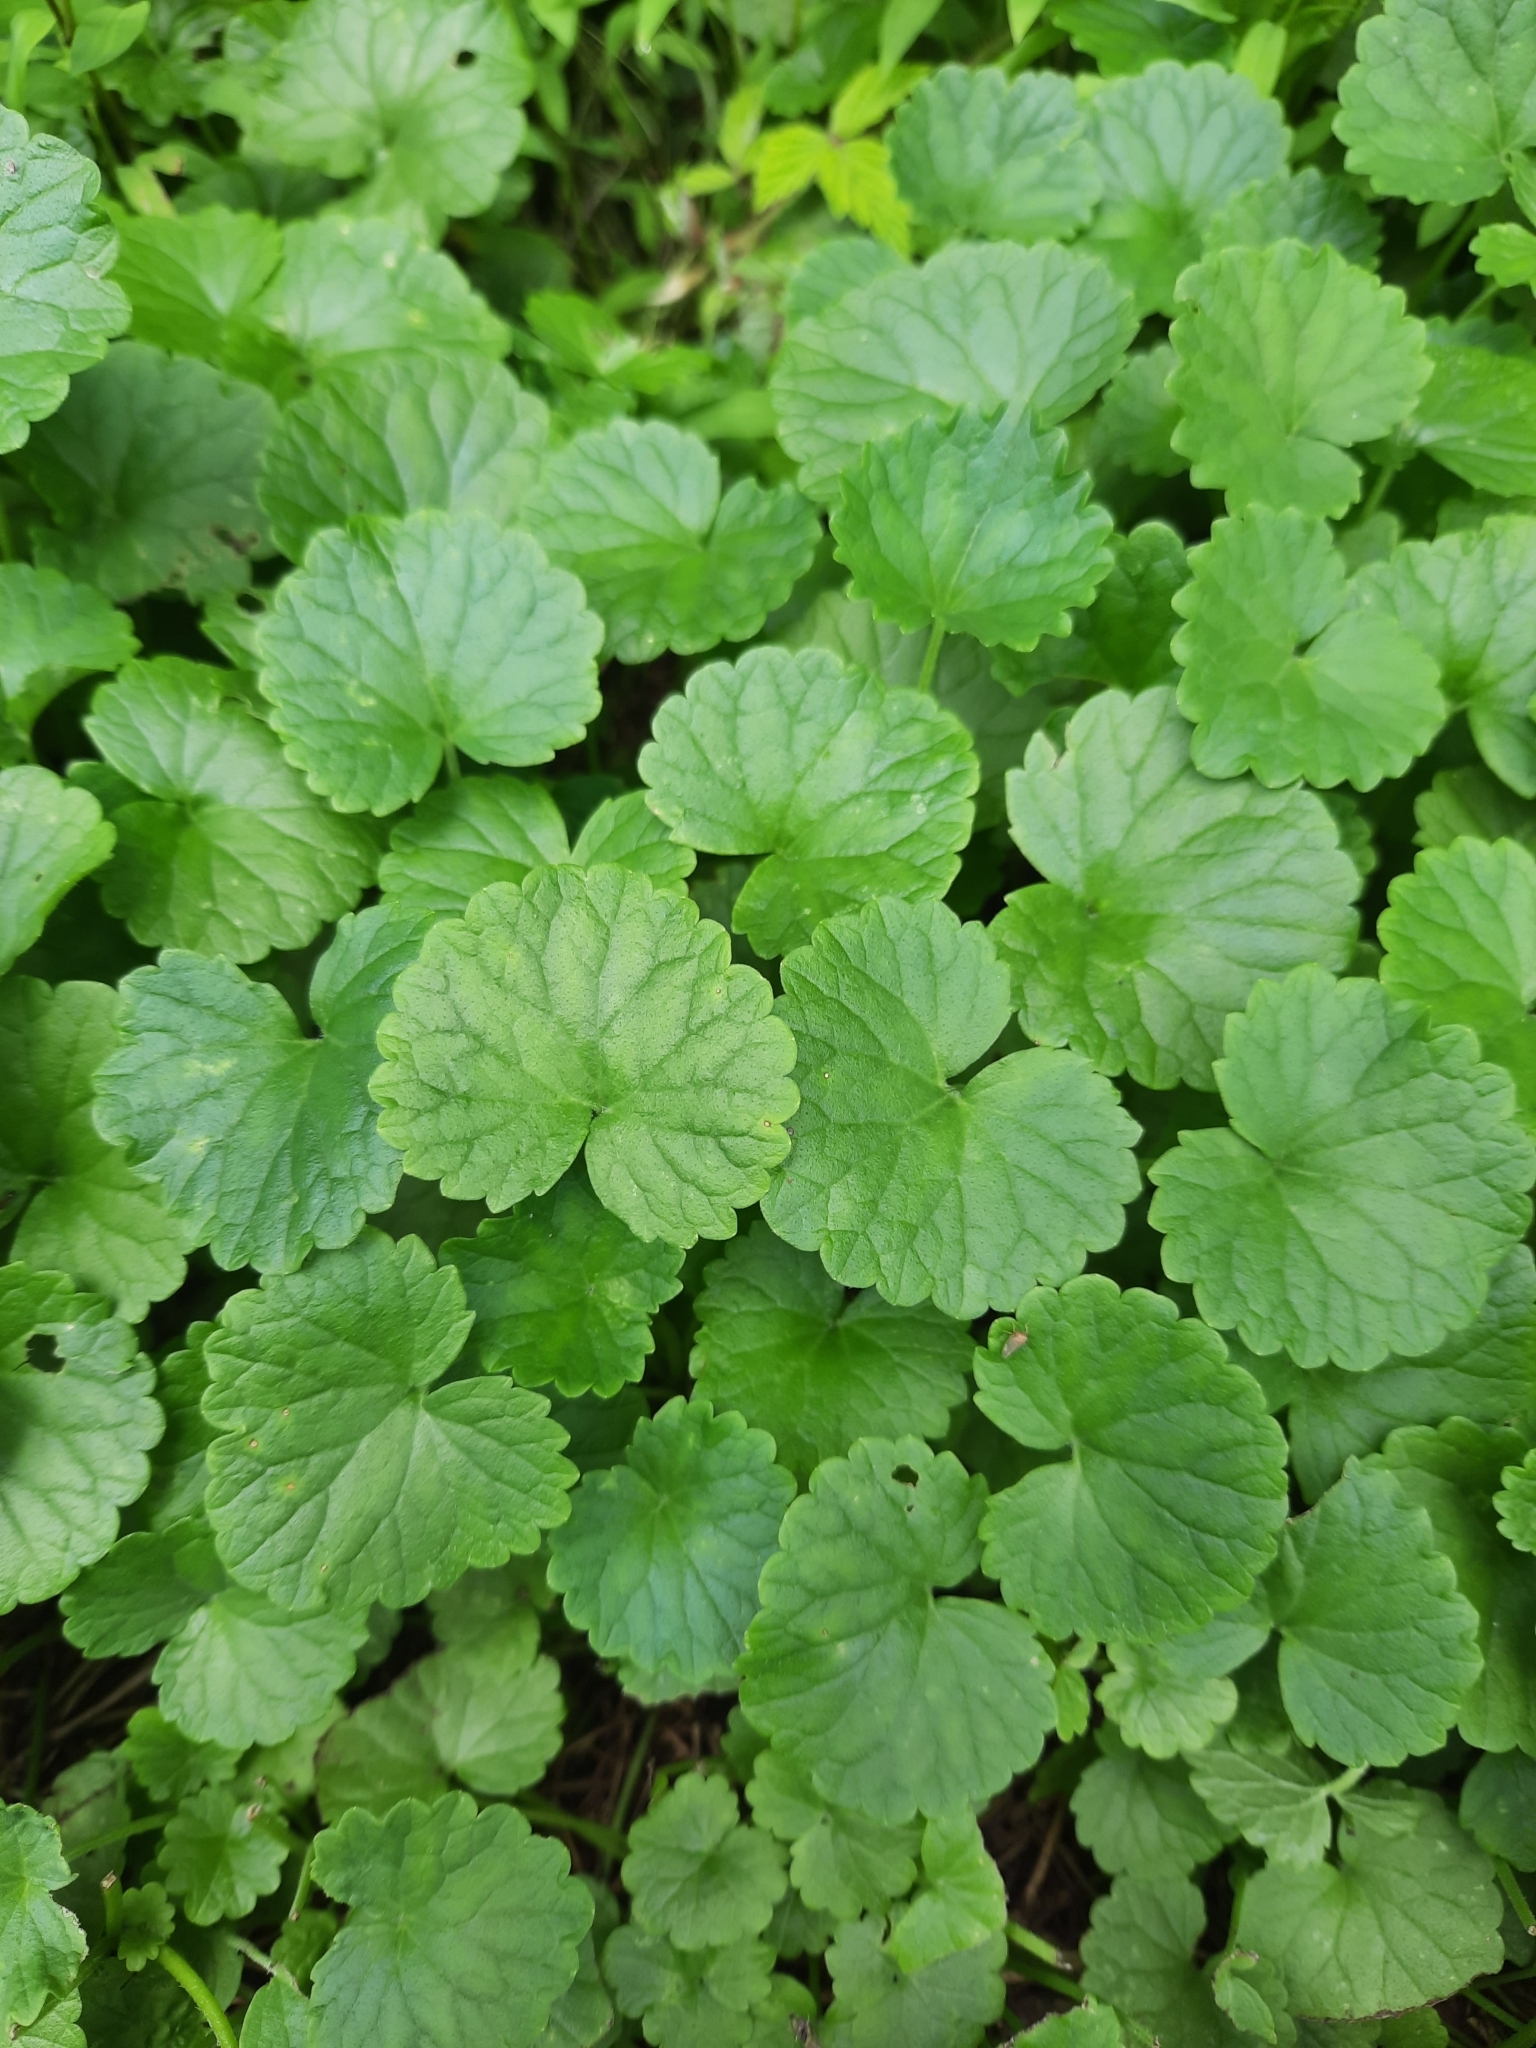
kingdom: Plantae
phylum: Tracheophyta
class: Magnoliopsida
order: Lamiales
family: Lamiaceae
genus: Glechoma
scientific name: Glechoma hederacea
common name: Ground ivy
